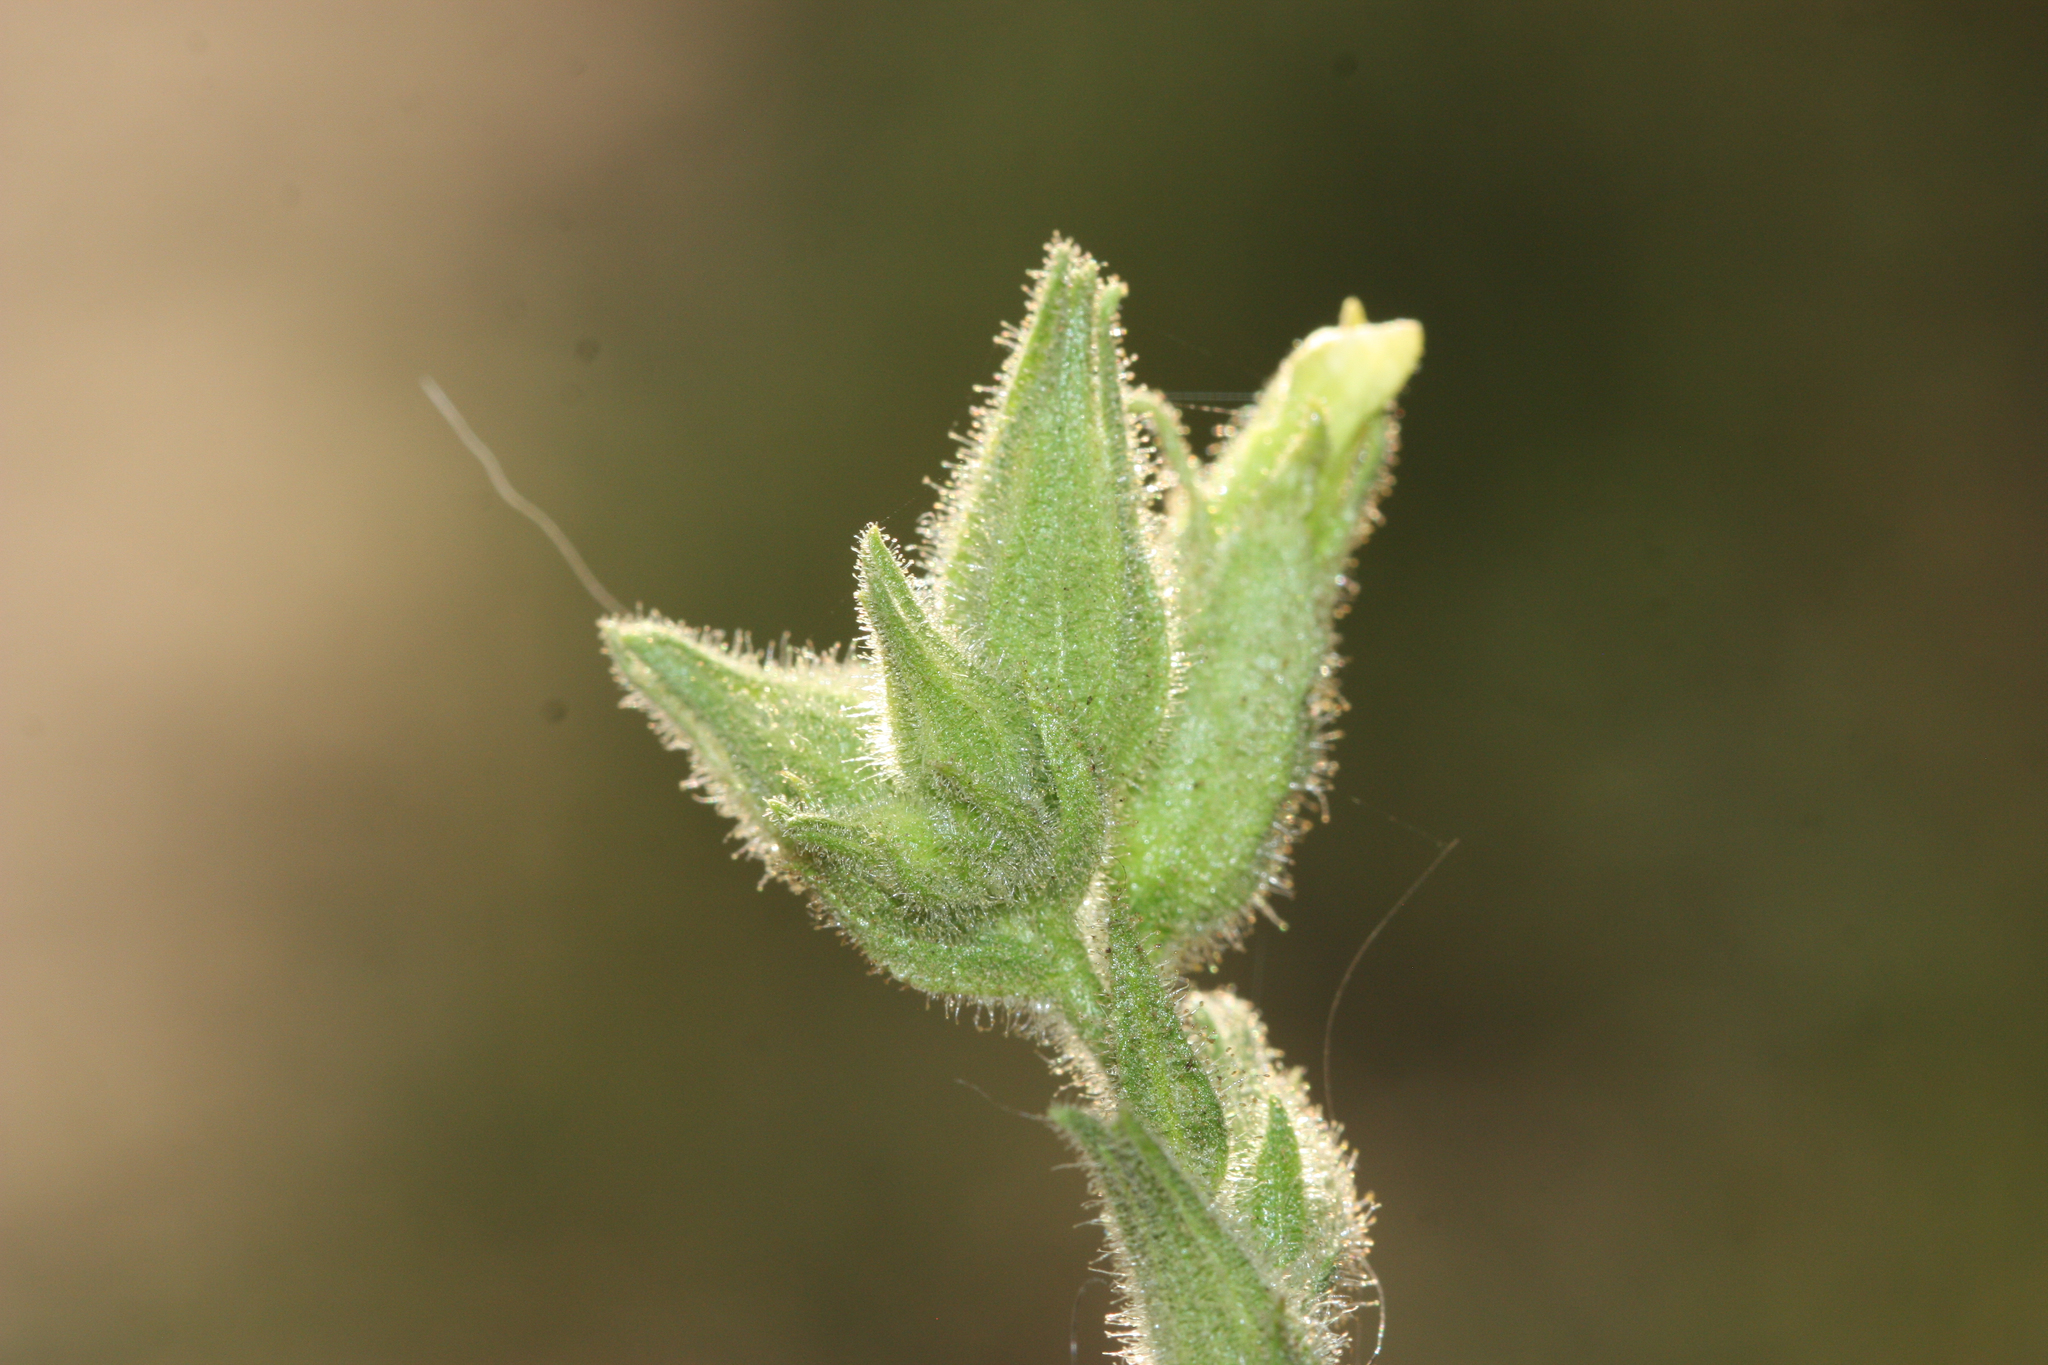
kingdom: Plantae
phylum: Tracheophyta
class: Magnoliopsida
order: Solanales
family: Solanaceae
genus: Nicotiana
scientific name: Nicotiana obtusifolia
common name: Desert tobacco
